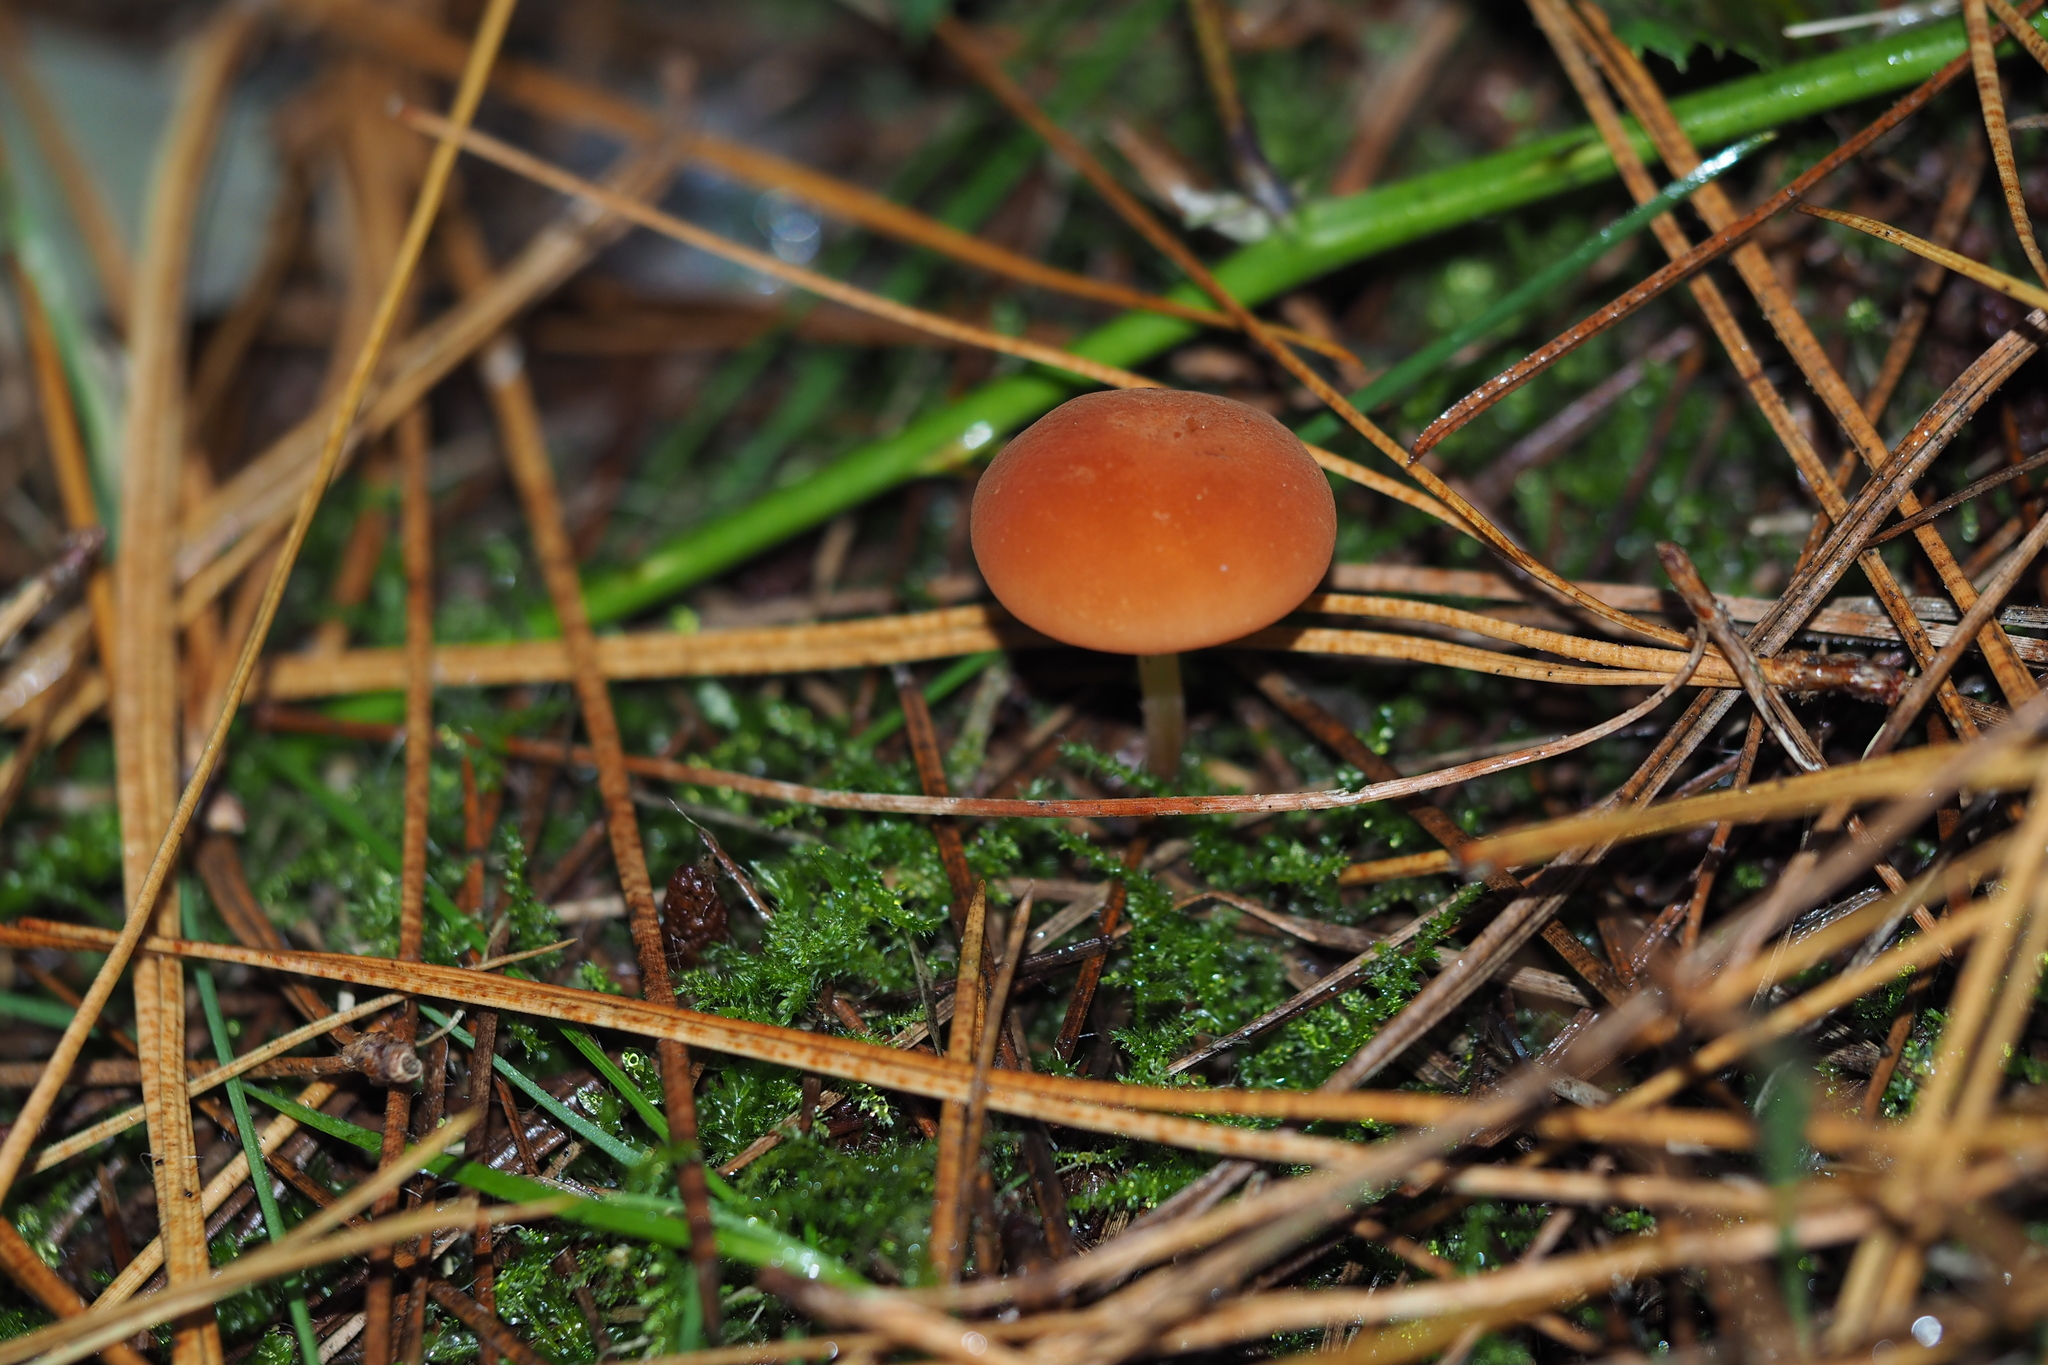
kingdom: Fungi
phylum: Basidiomycota
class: Agaricomycetes
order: Agaricales
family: Marasmiaceae
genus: Marasmius
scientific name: Marasmius elegans
